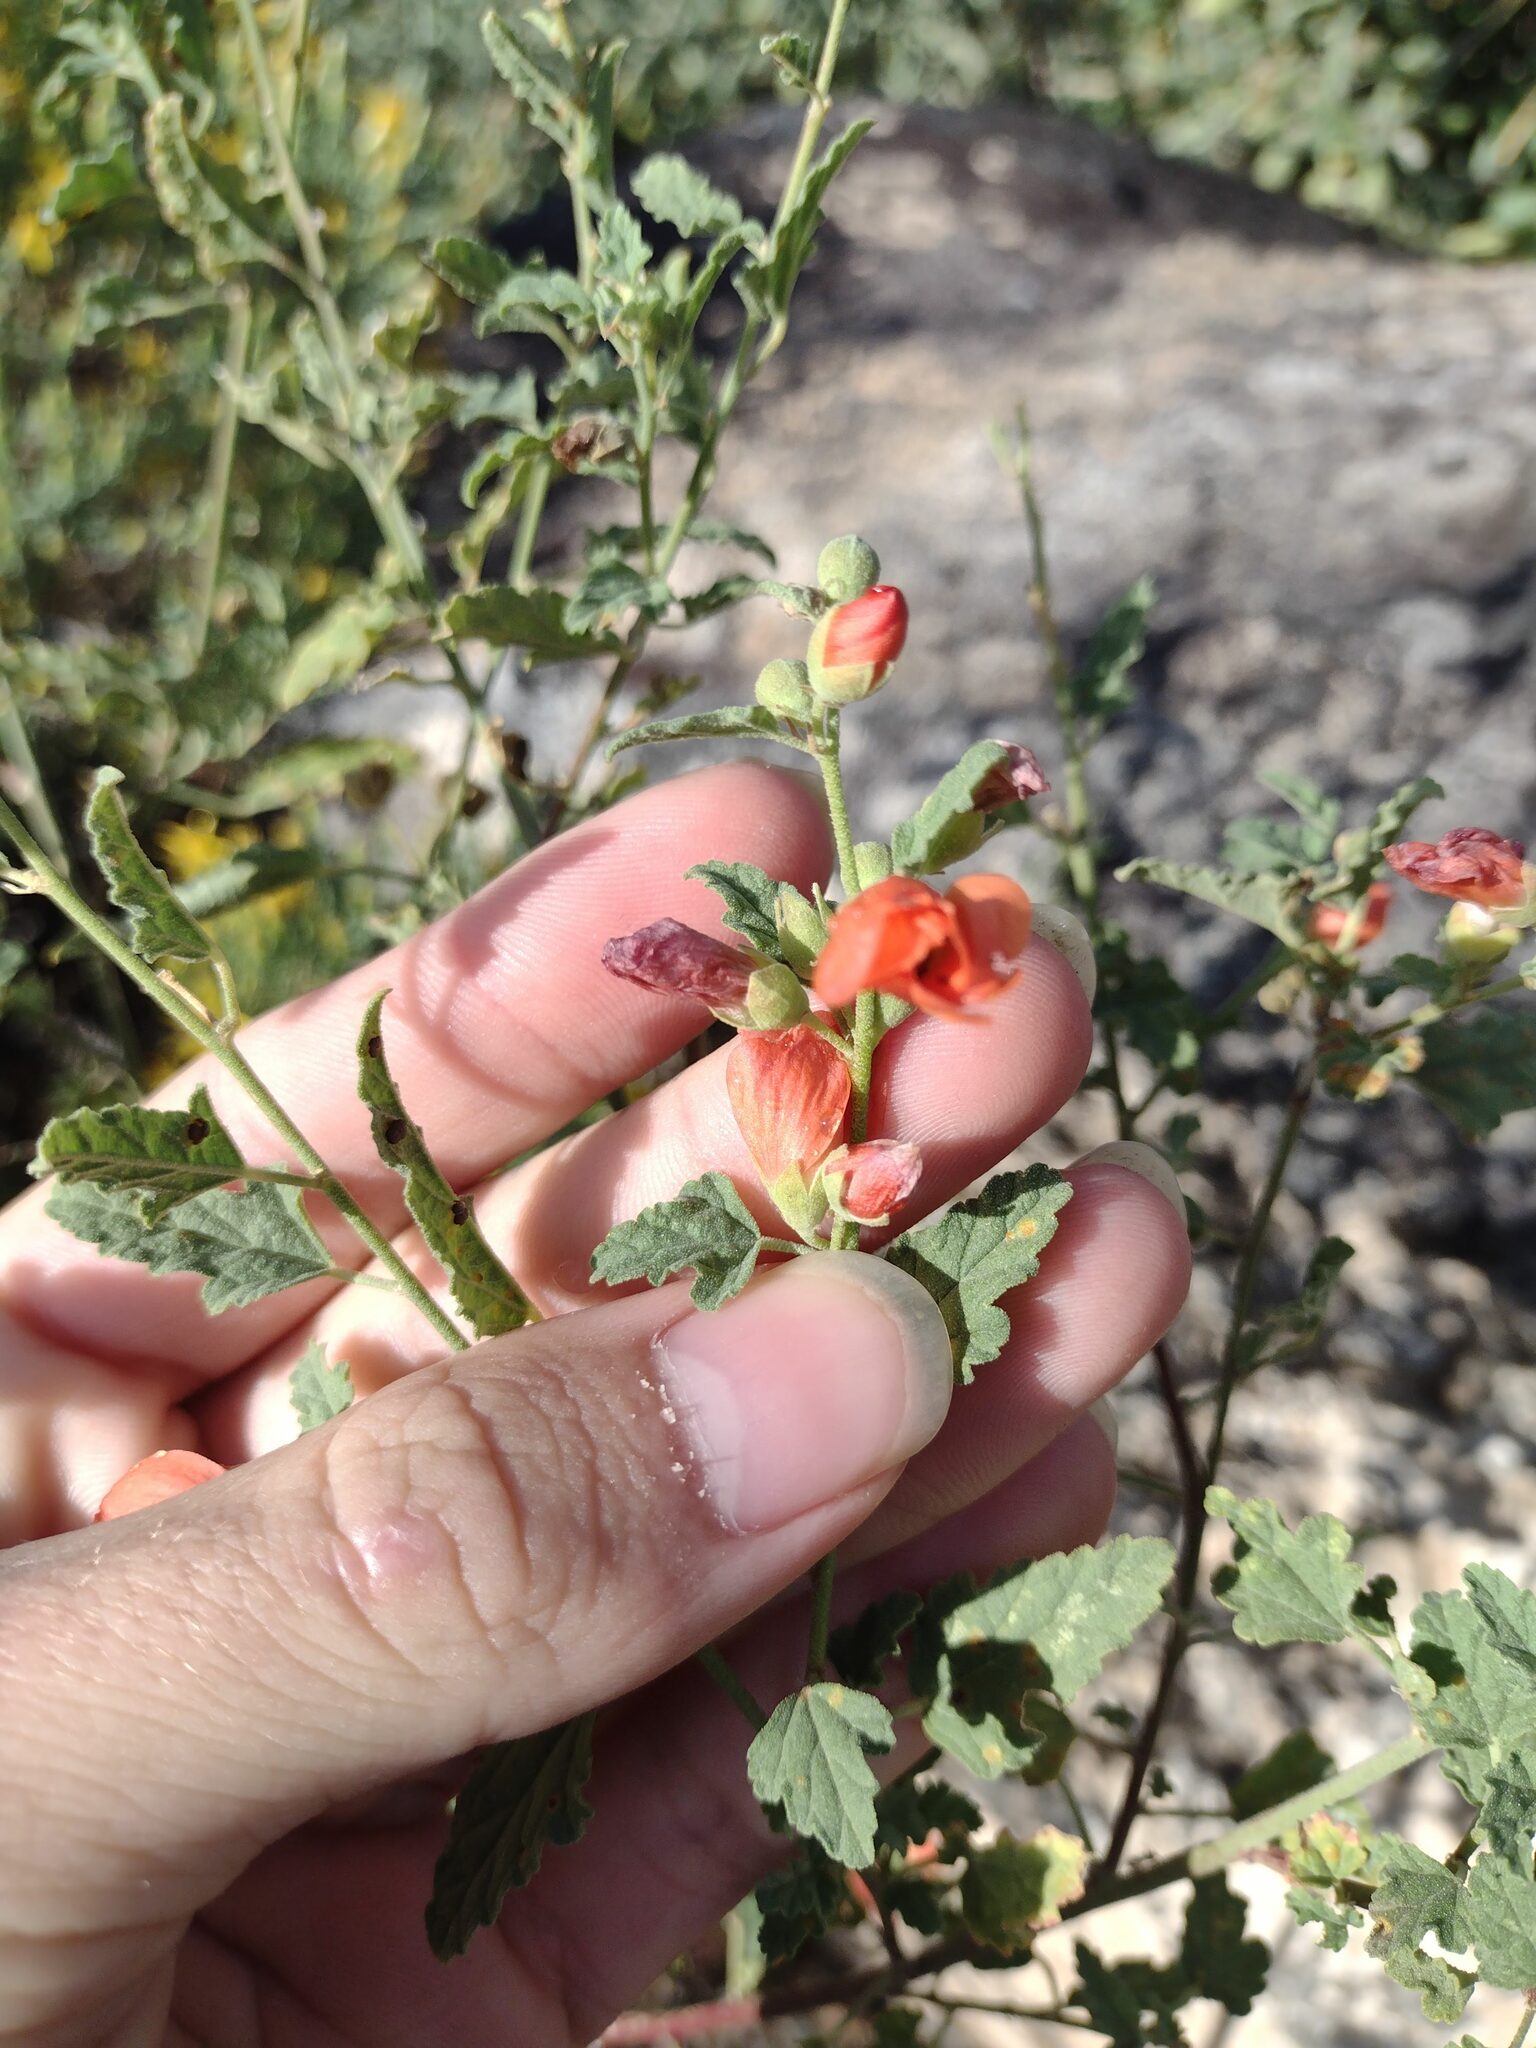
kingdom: Plantae
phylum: Tracheophyta
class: Magnoliopsida
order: Malvales
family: Malvaceae
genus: Sphaeralcea
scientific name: Sphaeralcea fendleri
